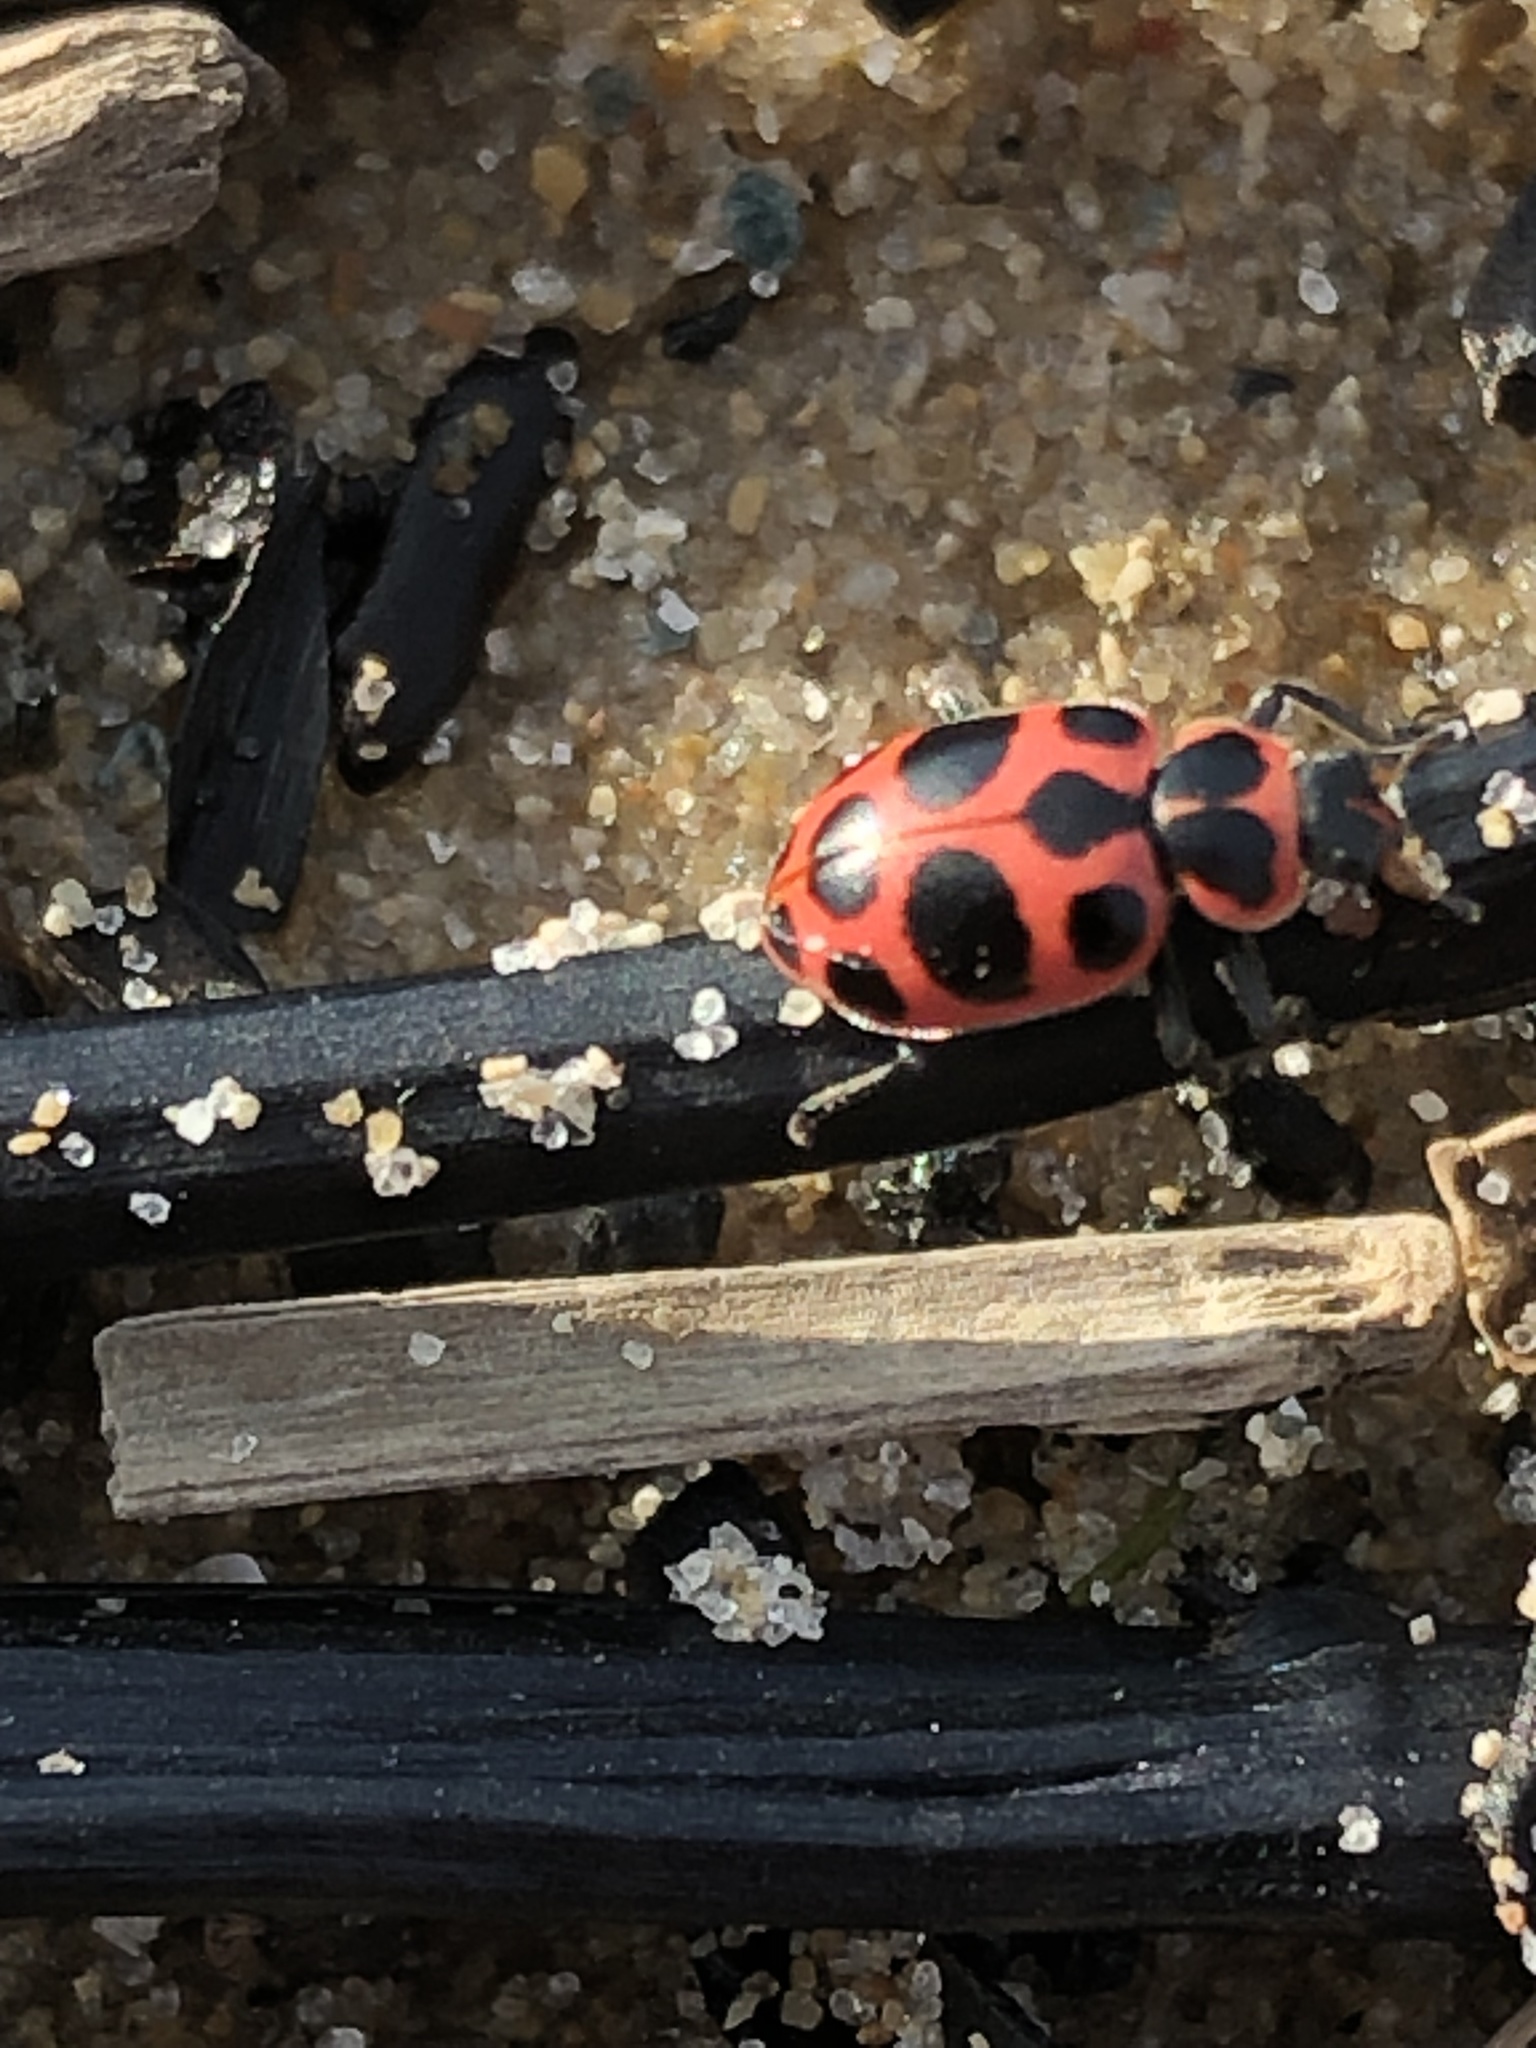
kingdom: Animalia
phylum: Arthropoda
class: Insecta
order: Coleoptera
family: Coccinellidae
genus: Coleomegilla
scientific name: Coleomegilla maculata
